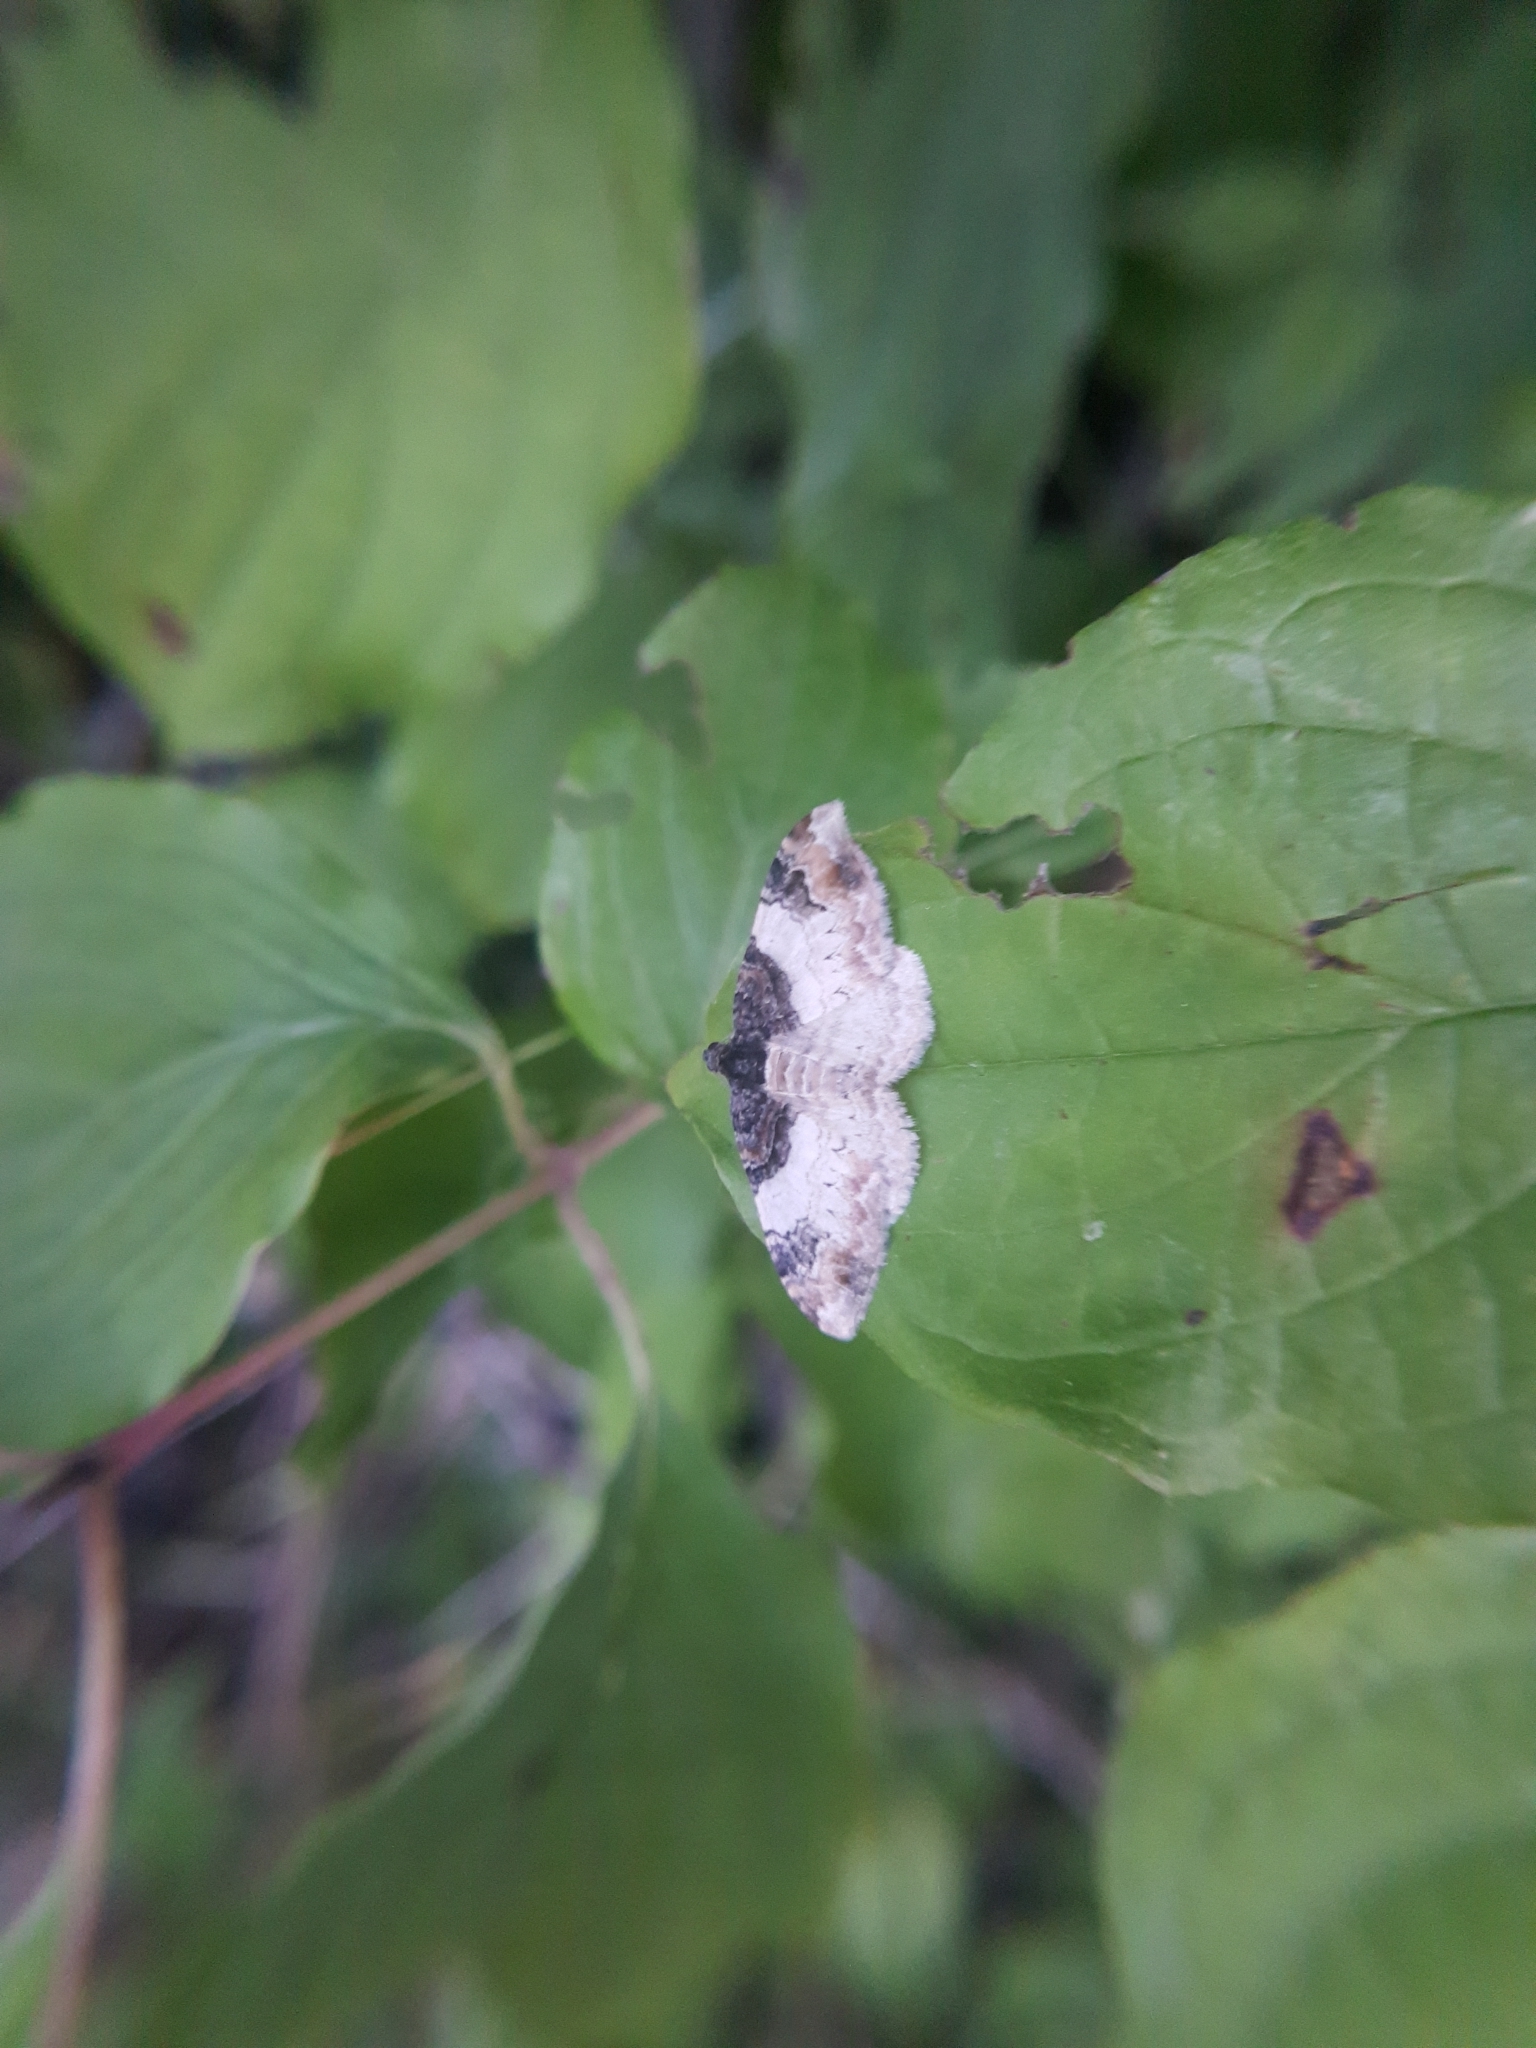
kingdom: Animalia
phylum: Arthropoda
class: Insecta
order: Lepidoptera
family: Geometridae
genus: Catarhoe
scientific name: Catarhoe cuculata
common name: Royal mantle
